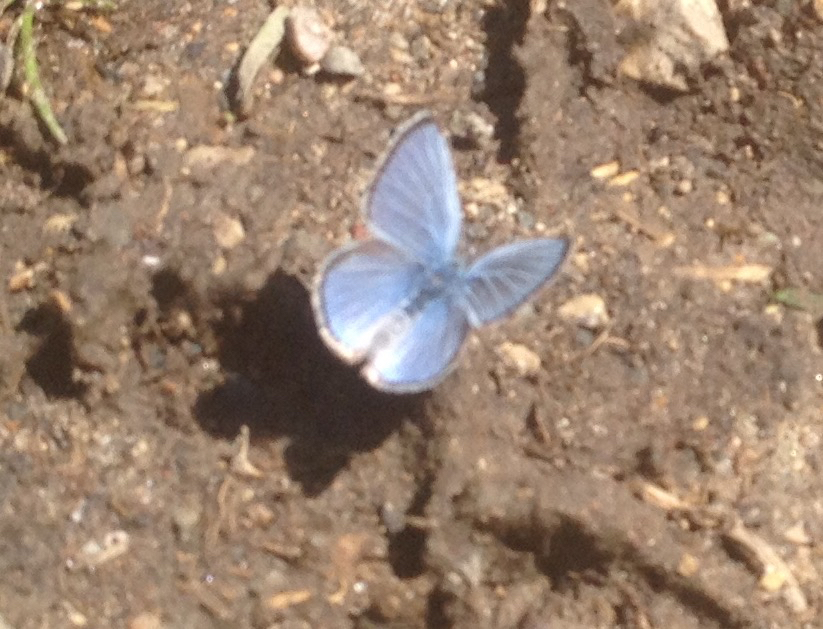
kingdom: Animalia
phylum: Arthropoda
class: Insecta
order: Lepidoptera
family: Lycaenidae
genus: Glaucopsyche
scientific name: Glaucopsyche lygdamus
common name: Silvery blue
